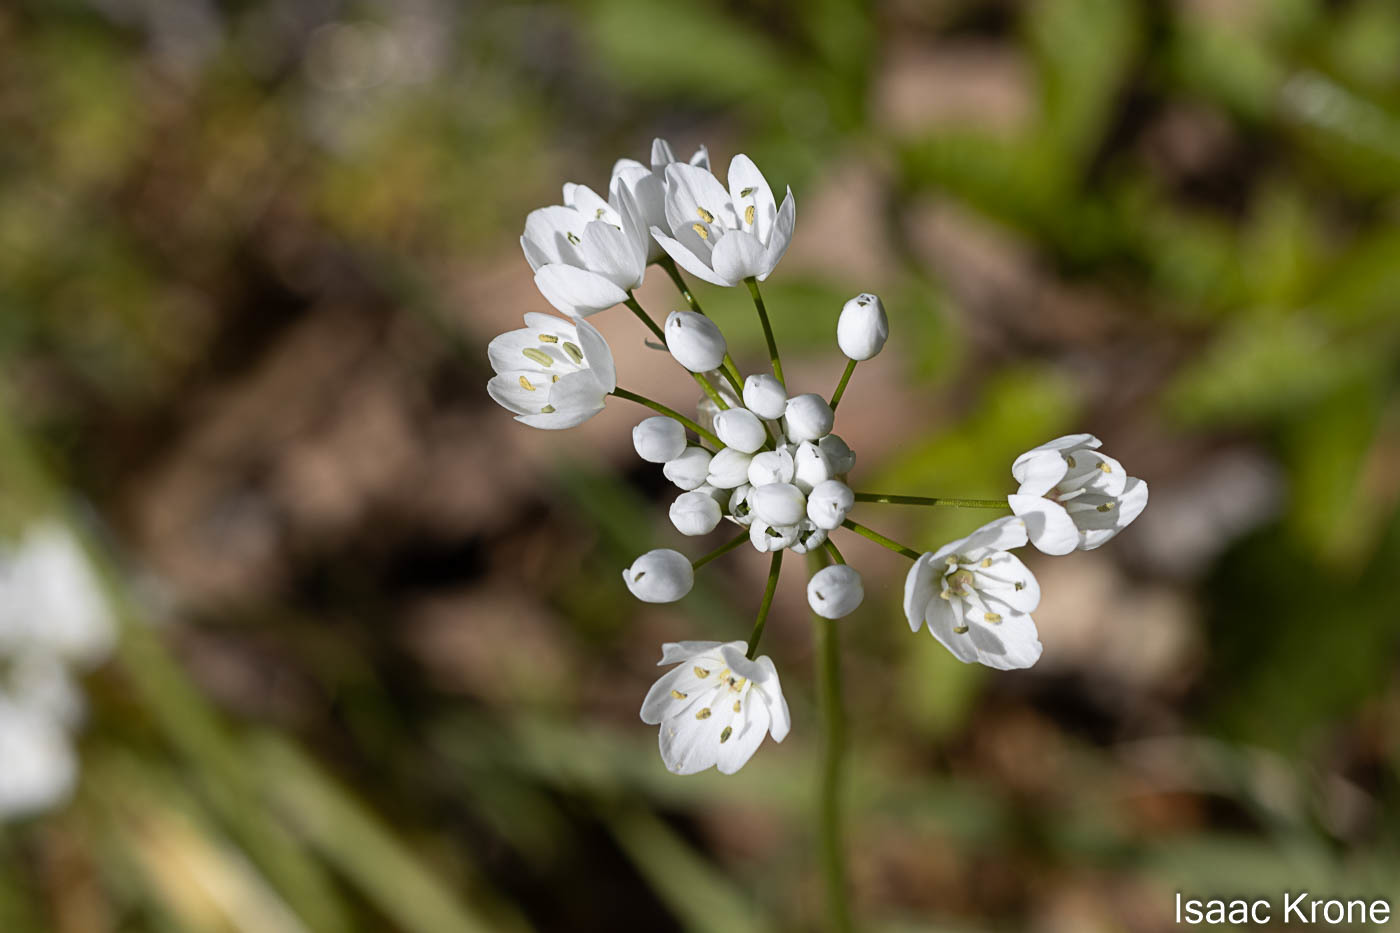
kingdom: Plantae
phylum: Tracheophyta
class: Liliopsida
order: Asparagales
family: Amaryllidaceae
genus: Allium
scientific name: Allium neapolitanum
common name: Neapolitan garlic
